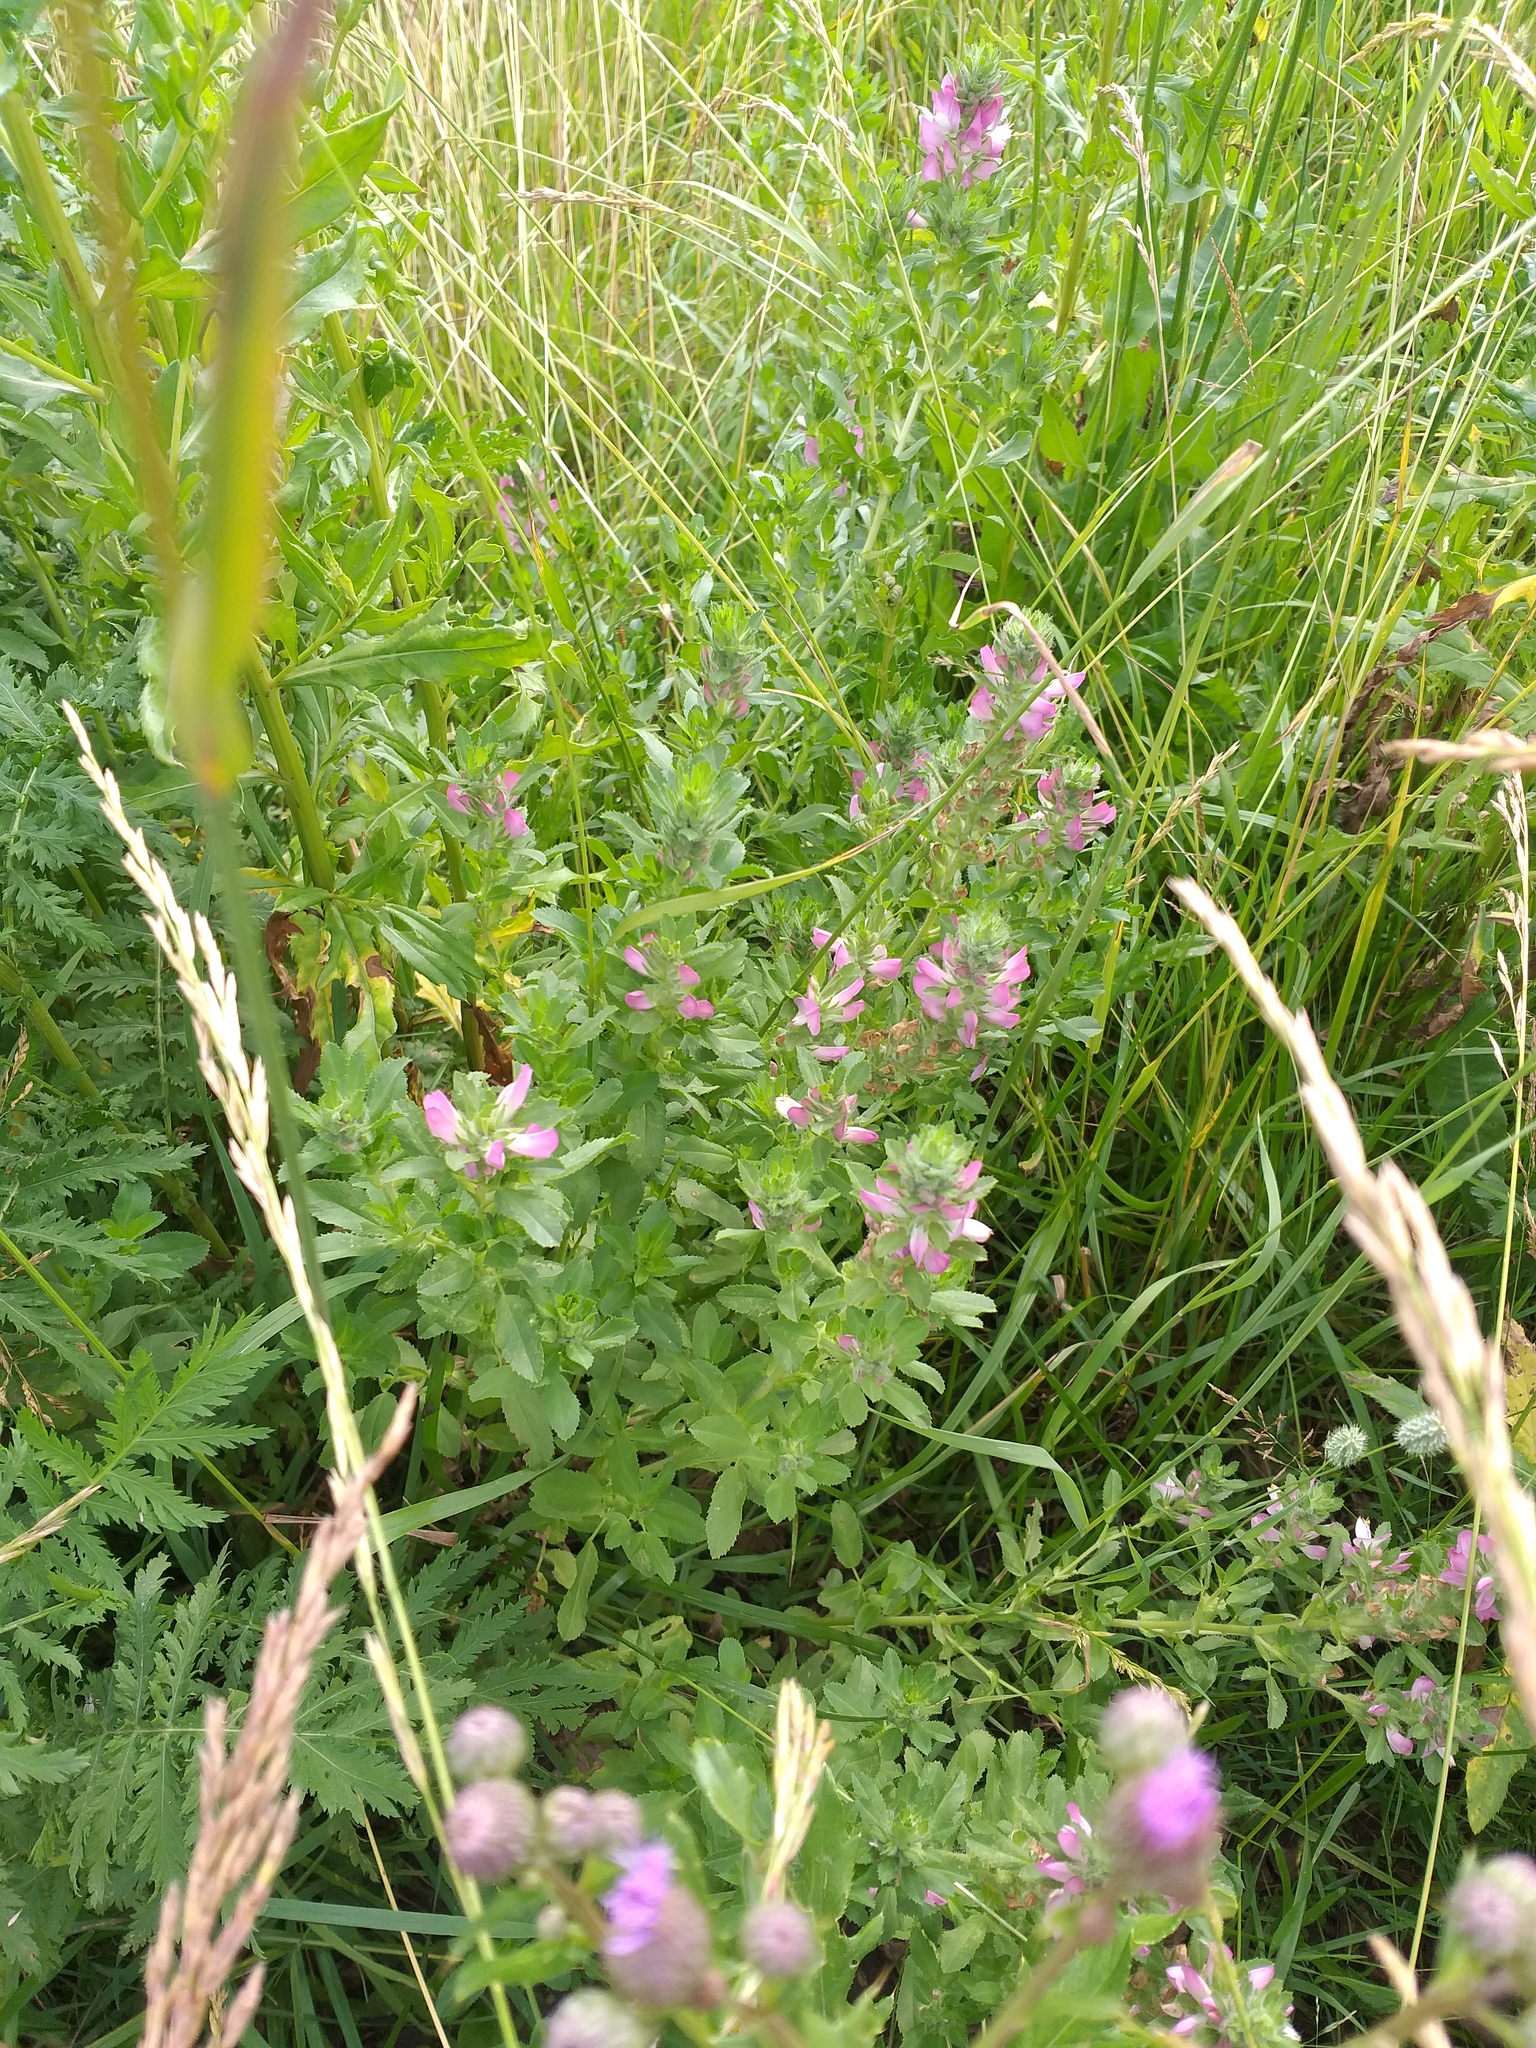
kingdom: Plantae
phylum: Tracheophyta
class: Magnoliopsida
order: Fabales
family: Fabaceae
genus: Ononis
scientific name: Ononis arvensis
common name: Field restharrow
